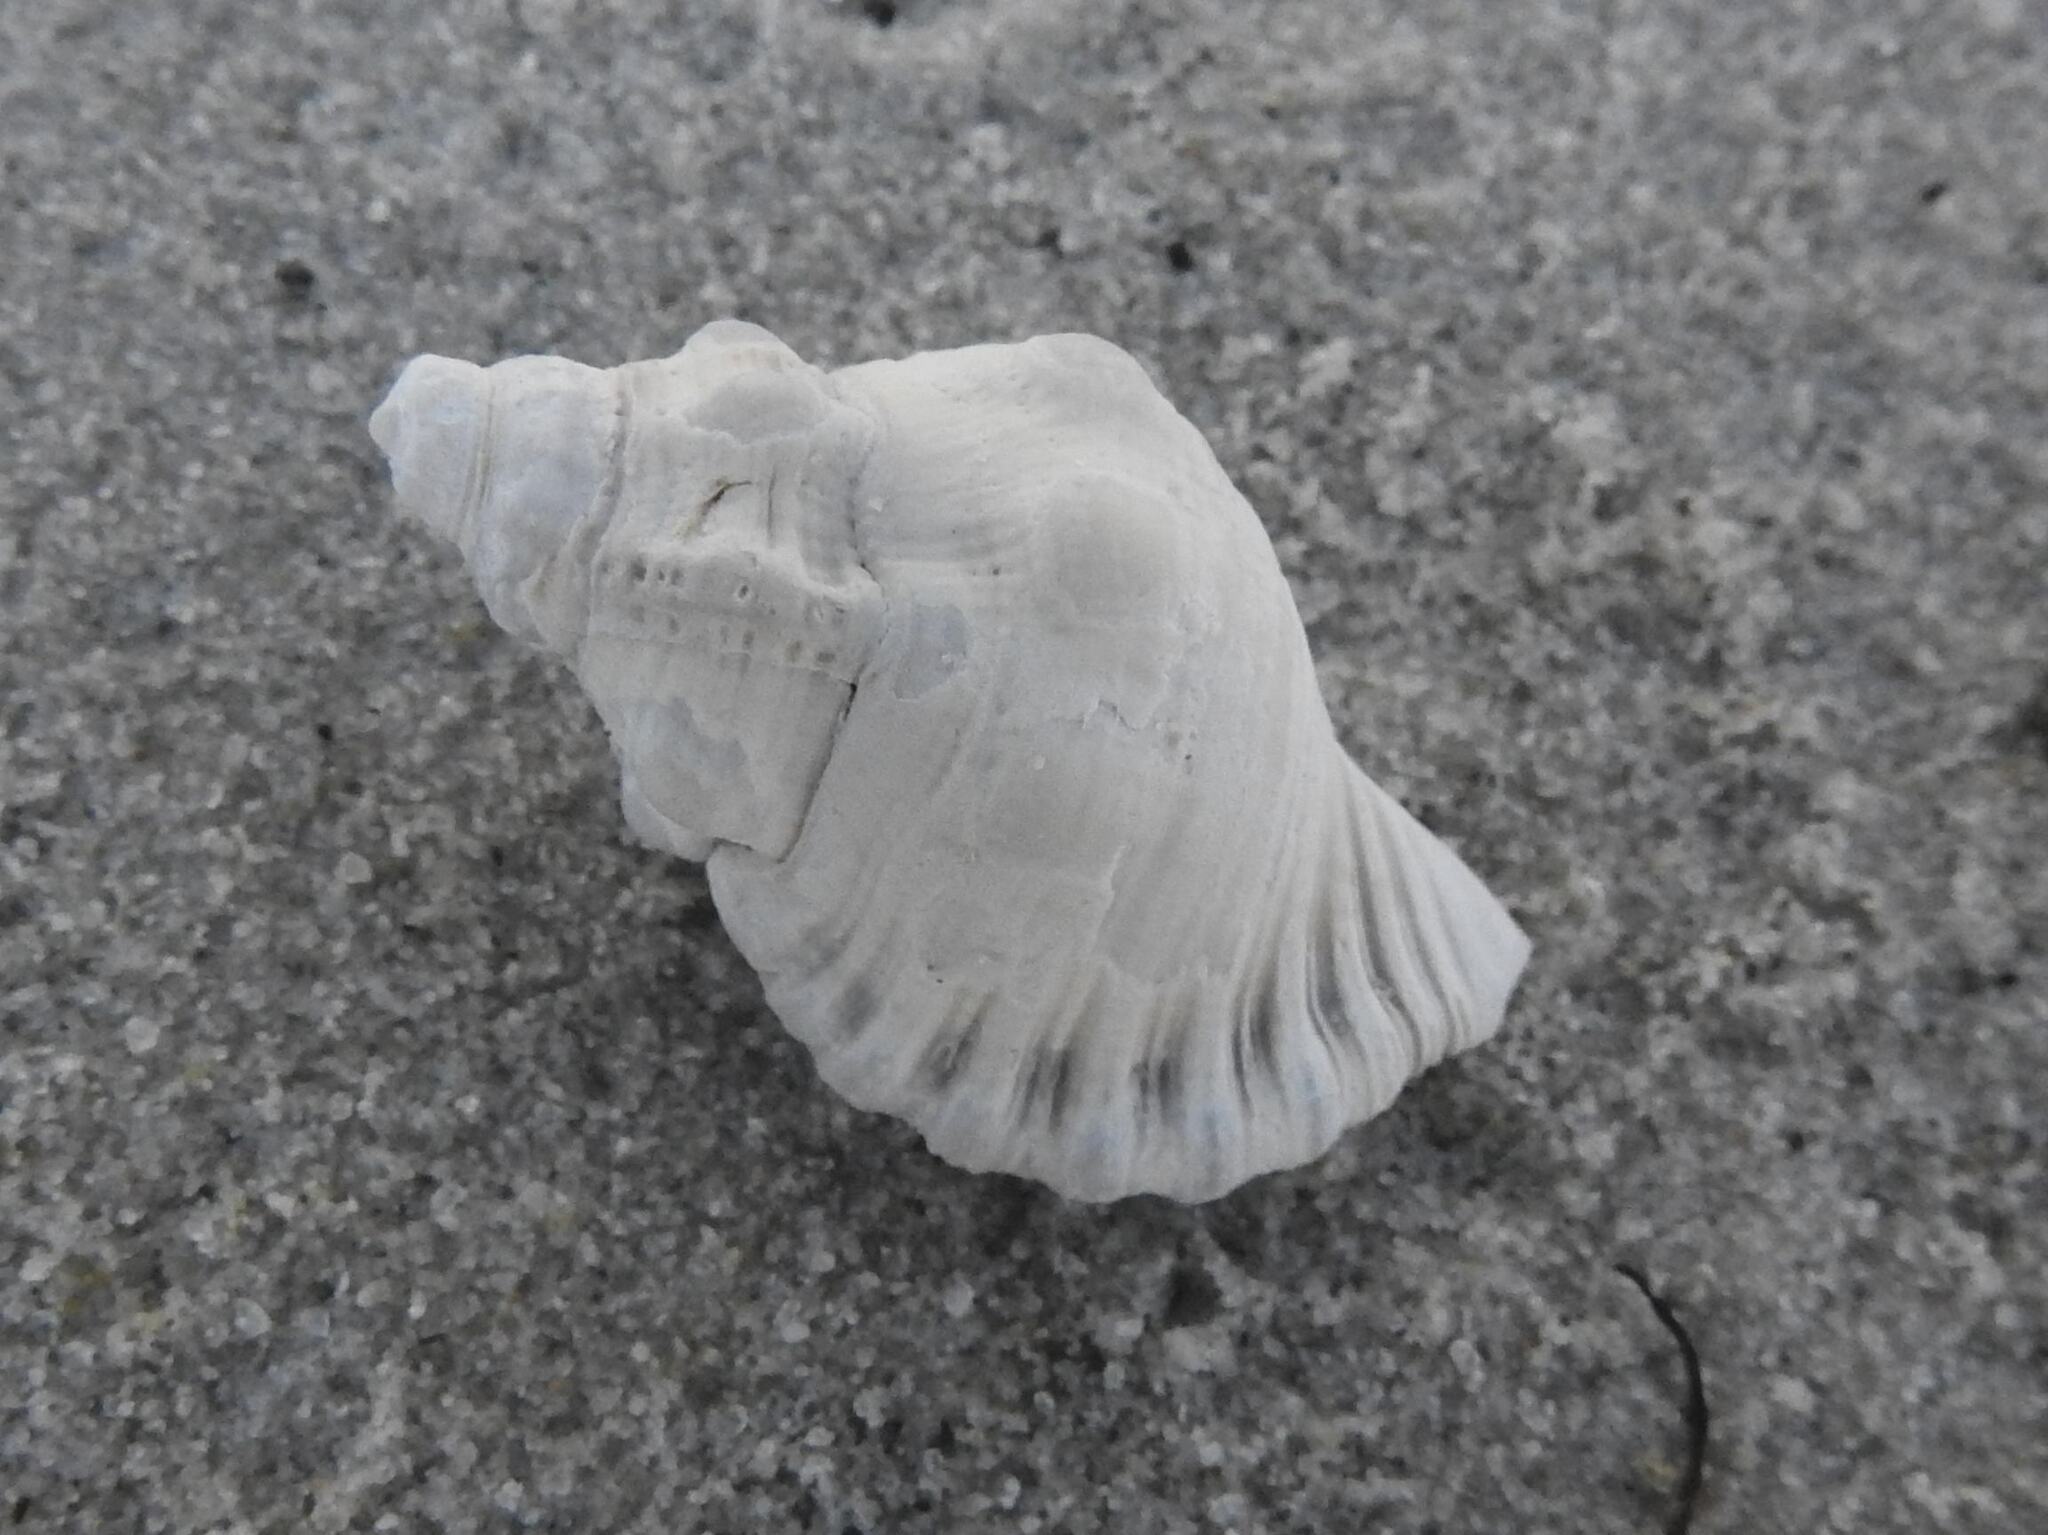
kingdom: Animalia
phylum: Mollusca
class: Gastropoda
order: Littorinimorpha
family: Cymatiidae
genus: Cabestana
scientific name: Cabestana spengleri
